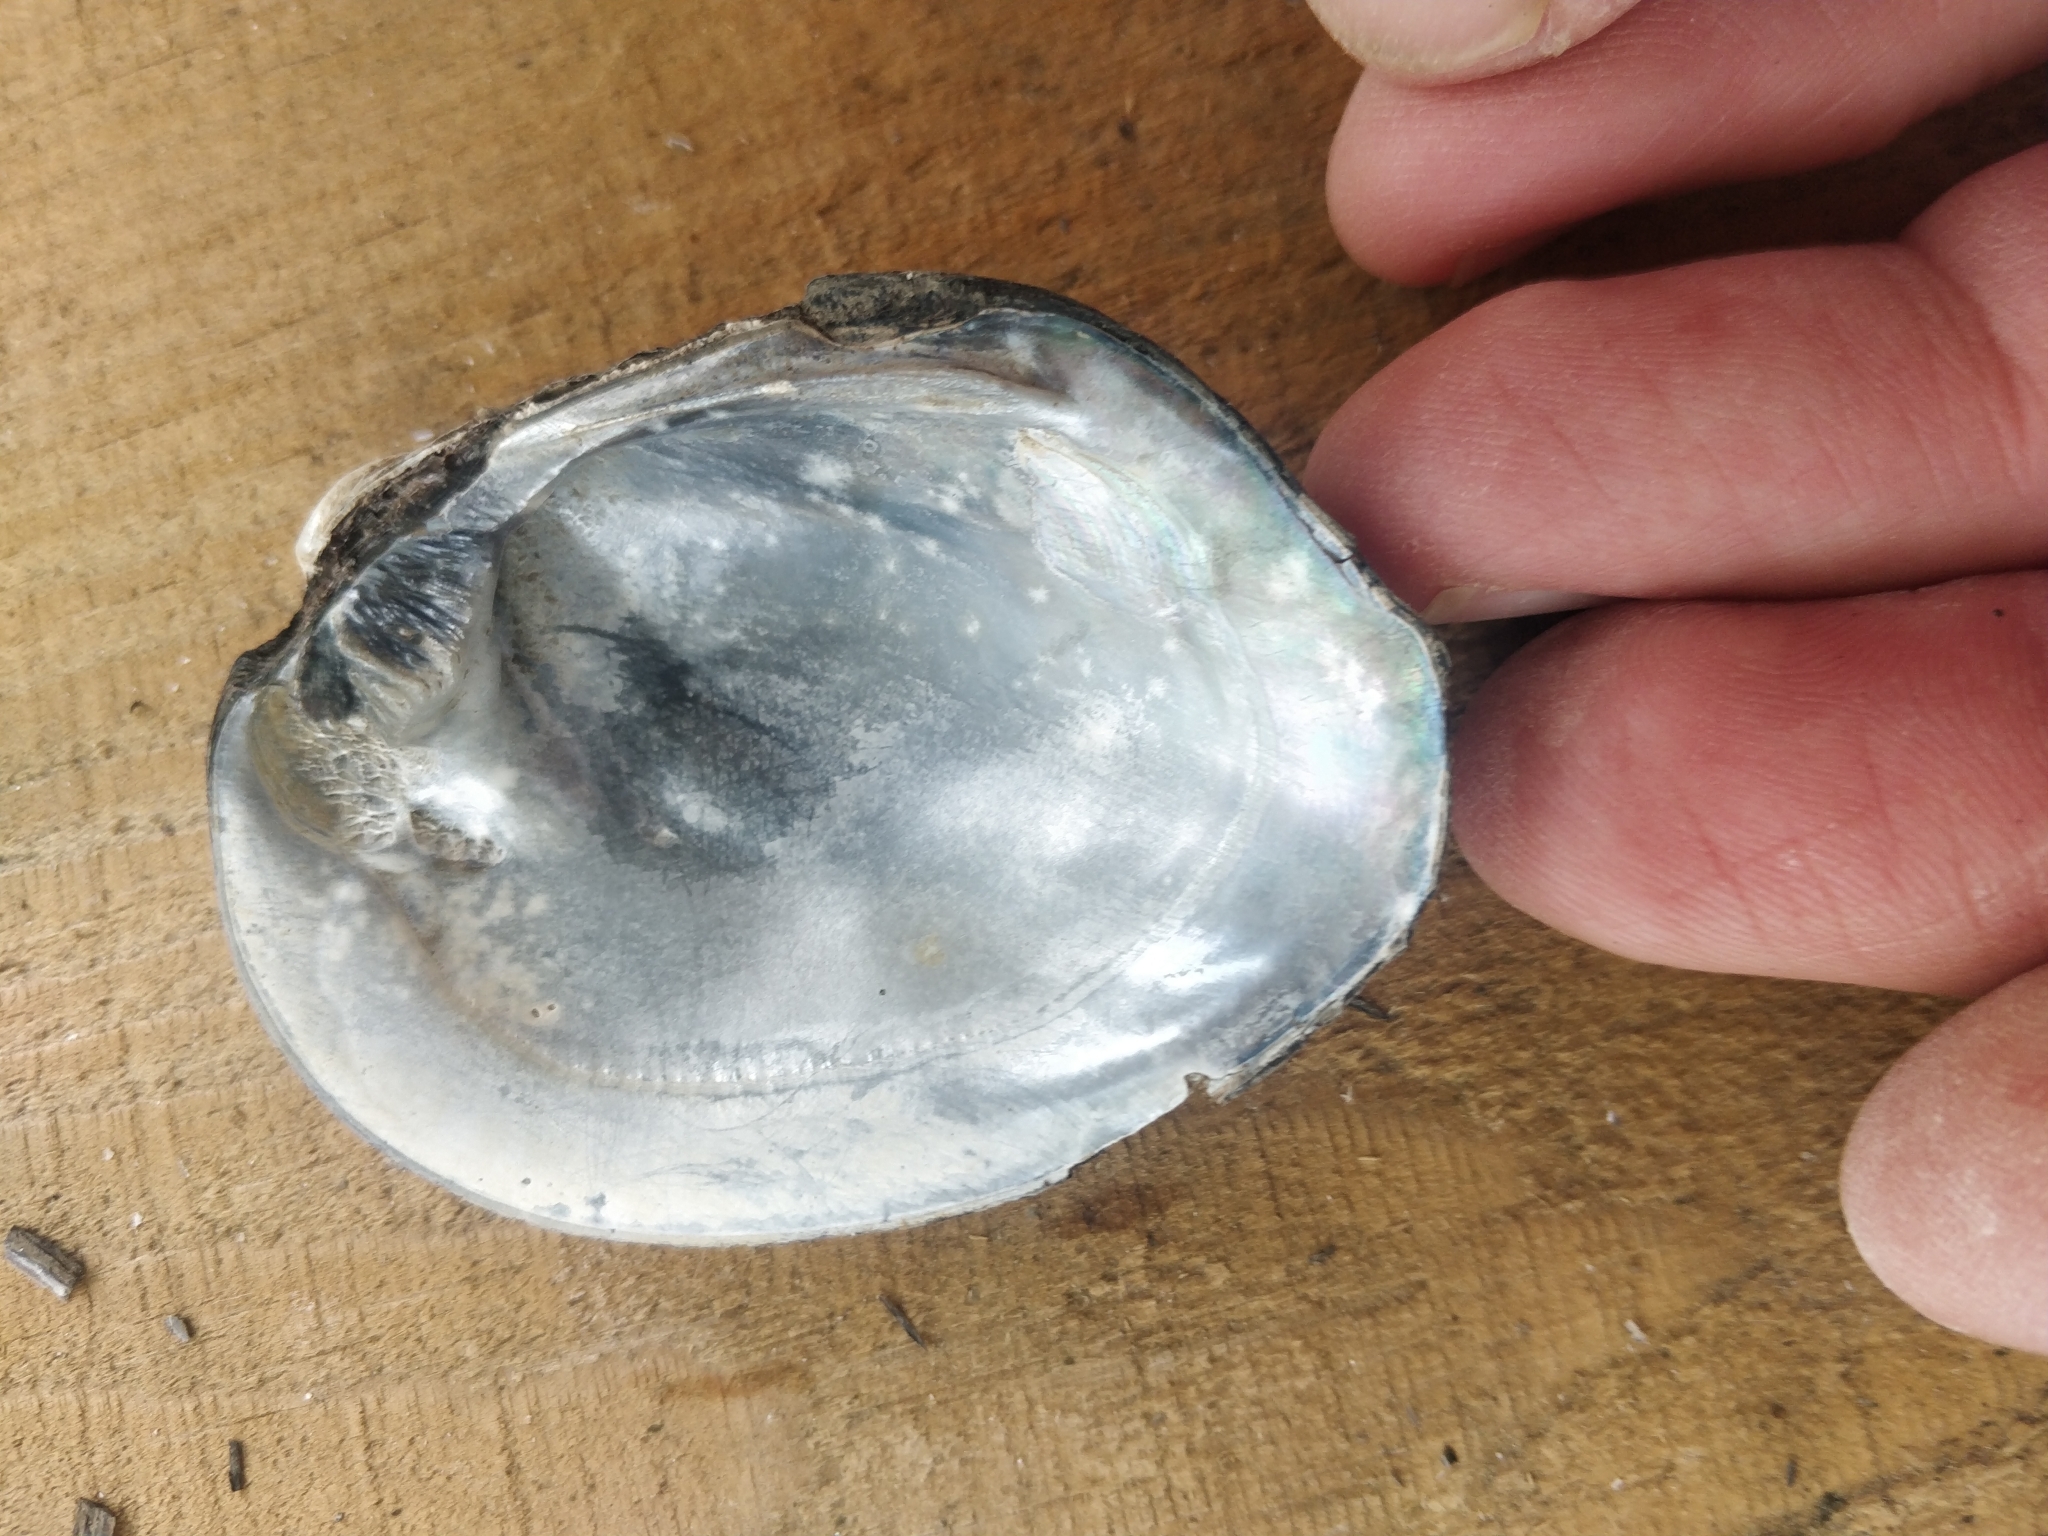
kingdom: Animalia
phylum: Mollusca
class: Bivalvia
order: Unionida
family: Unionidae
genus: Amblema
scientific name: Amblema plicata
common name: Threeridge
